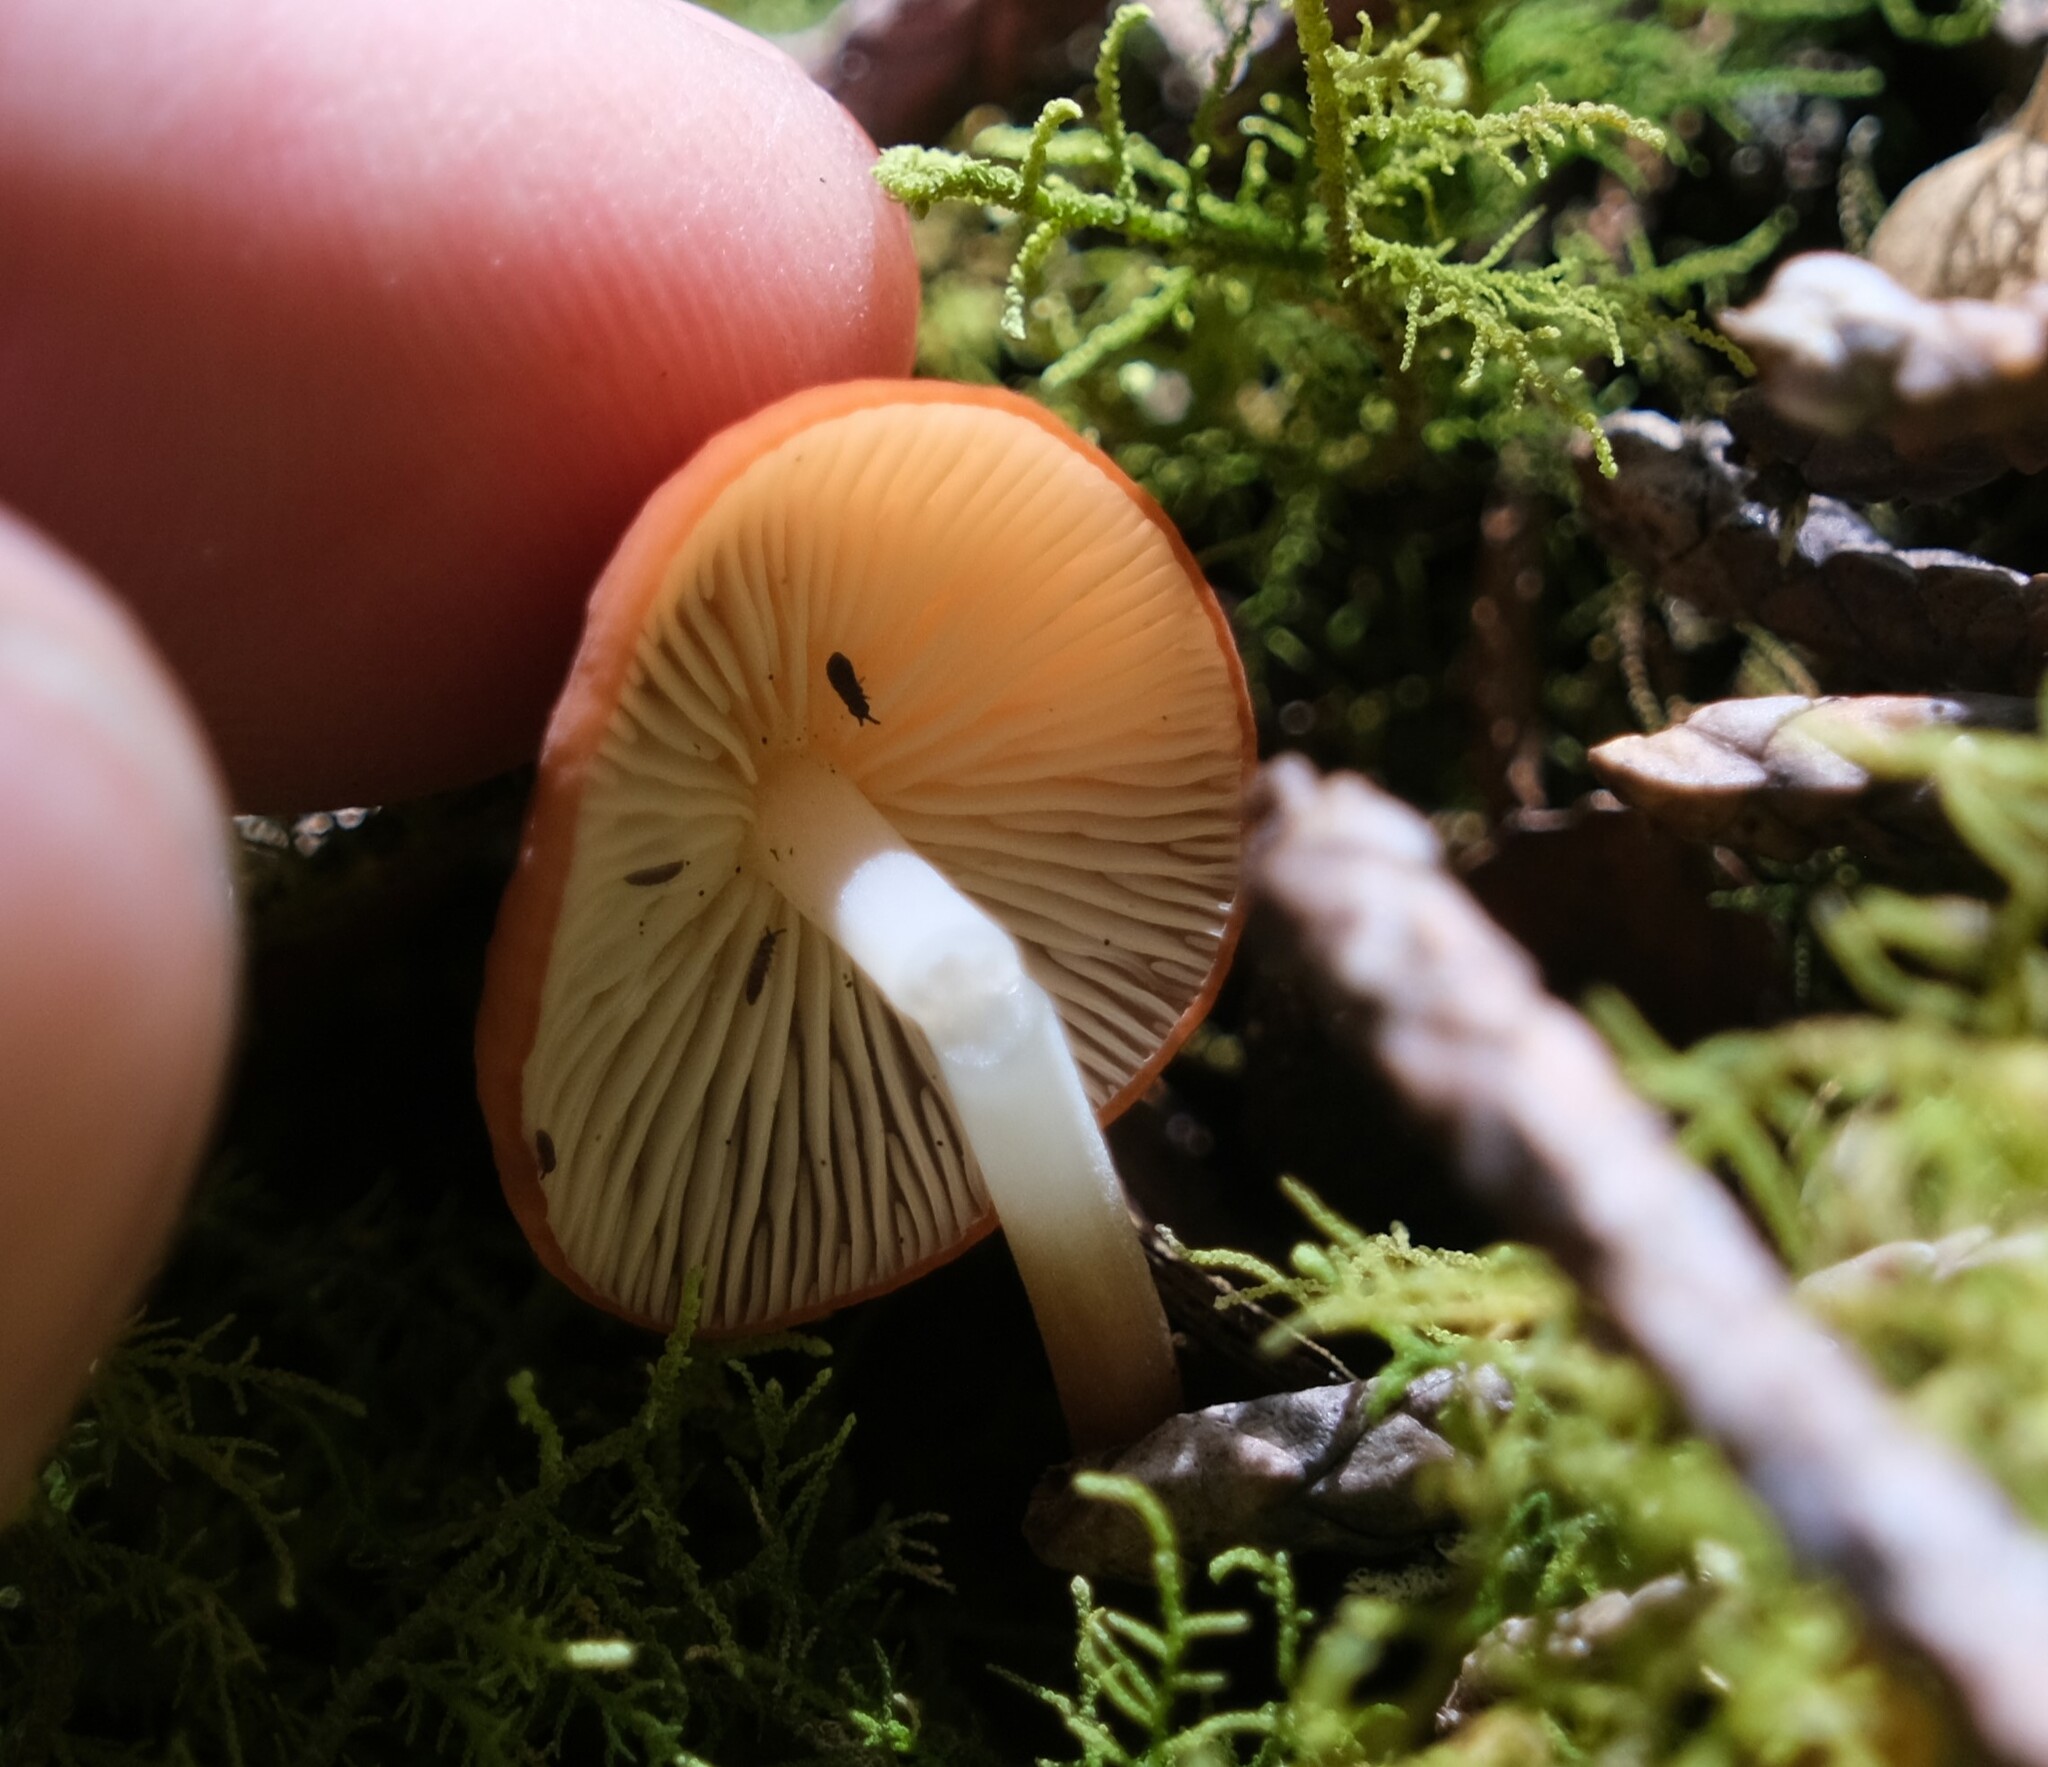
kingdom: Fungi
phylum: Basidiomycota
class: Agaricomycetes
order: Agaricales
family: Marasmiaceae
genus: Marasmius
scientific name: Marasmius elegans
